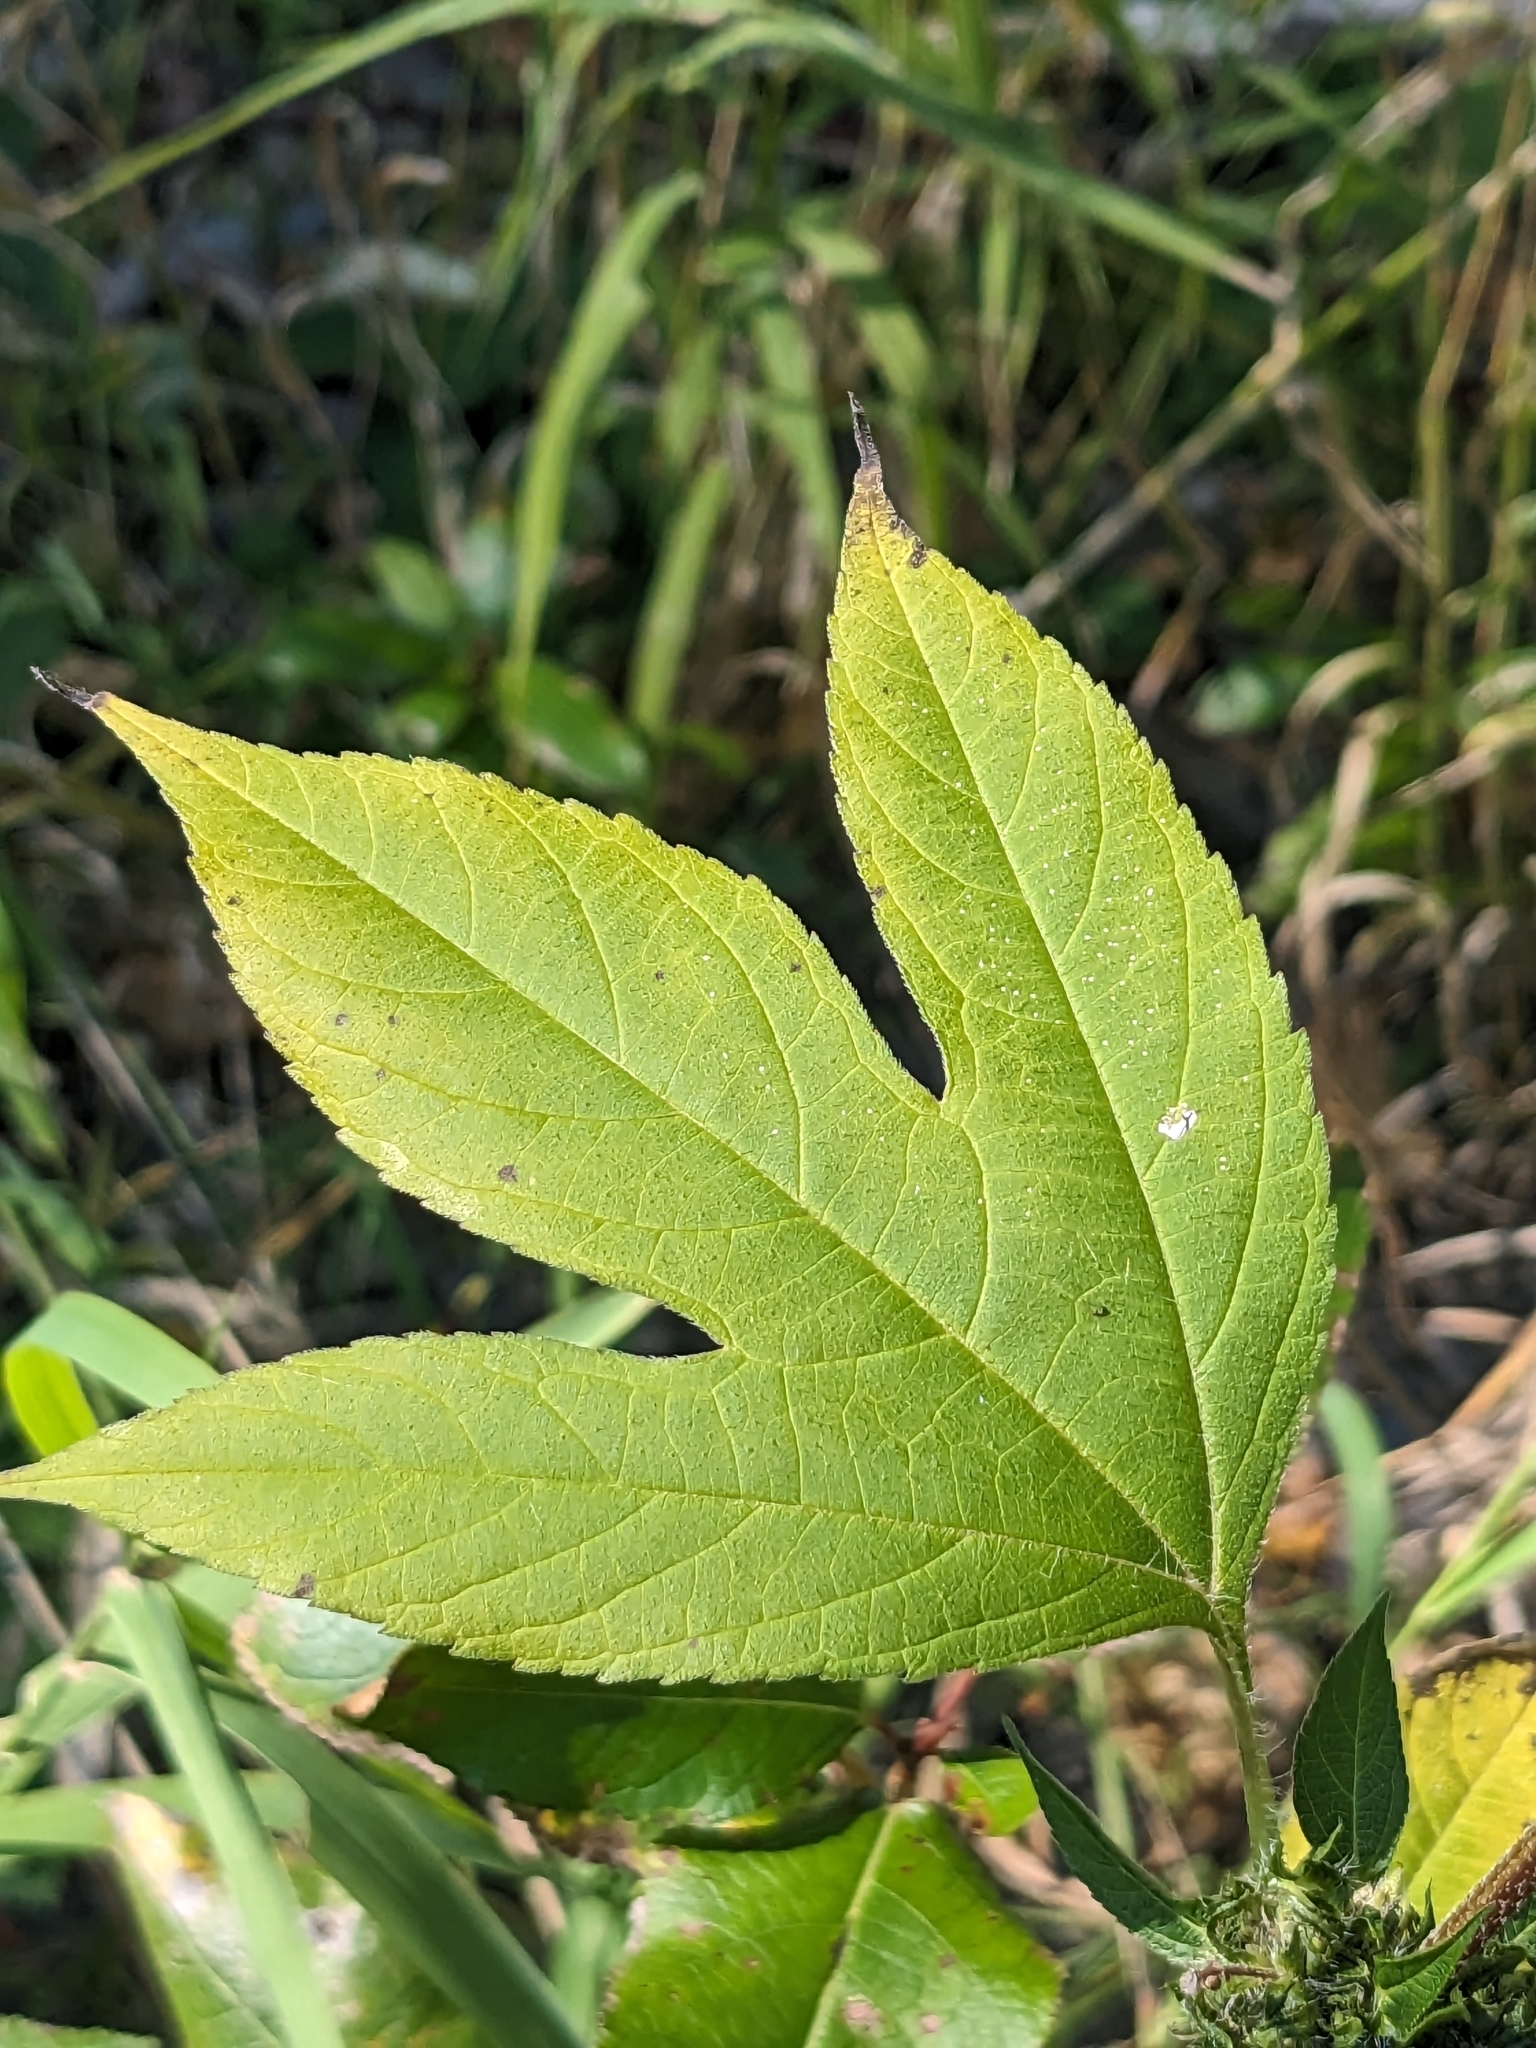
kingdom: Plantae
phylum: Tracheophyta
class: Magnoliopsida
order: Asterales
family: Asteraceae
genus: Ambrosia
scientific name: Ambrosia trifida
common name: Giant ragweed
